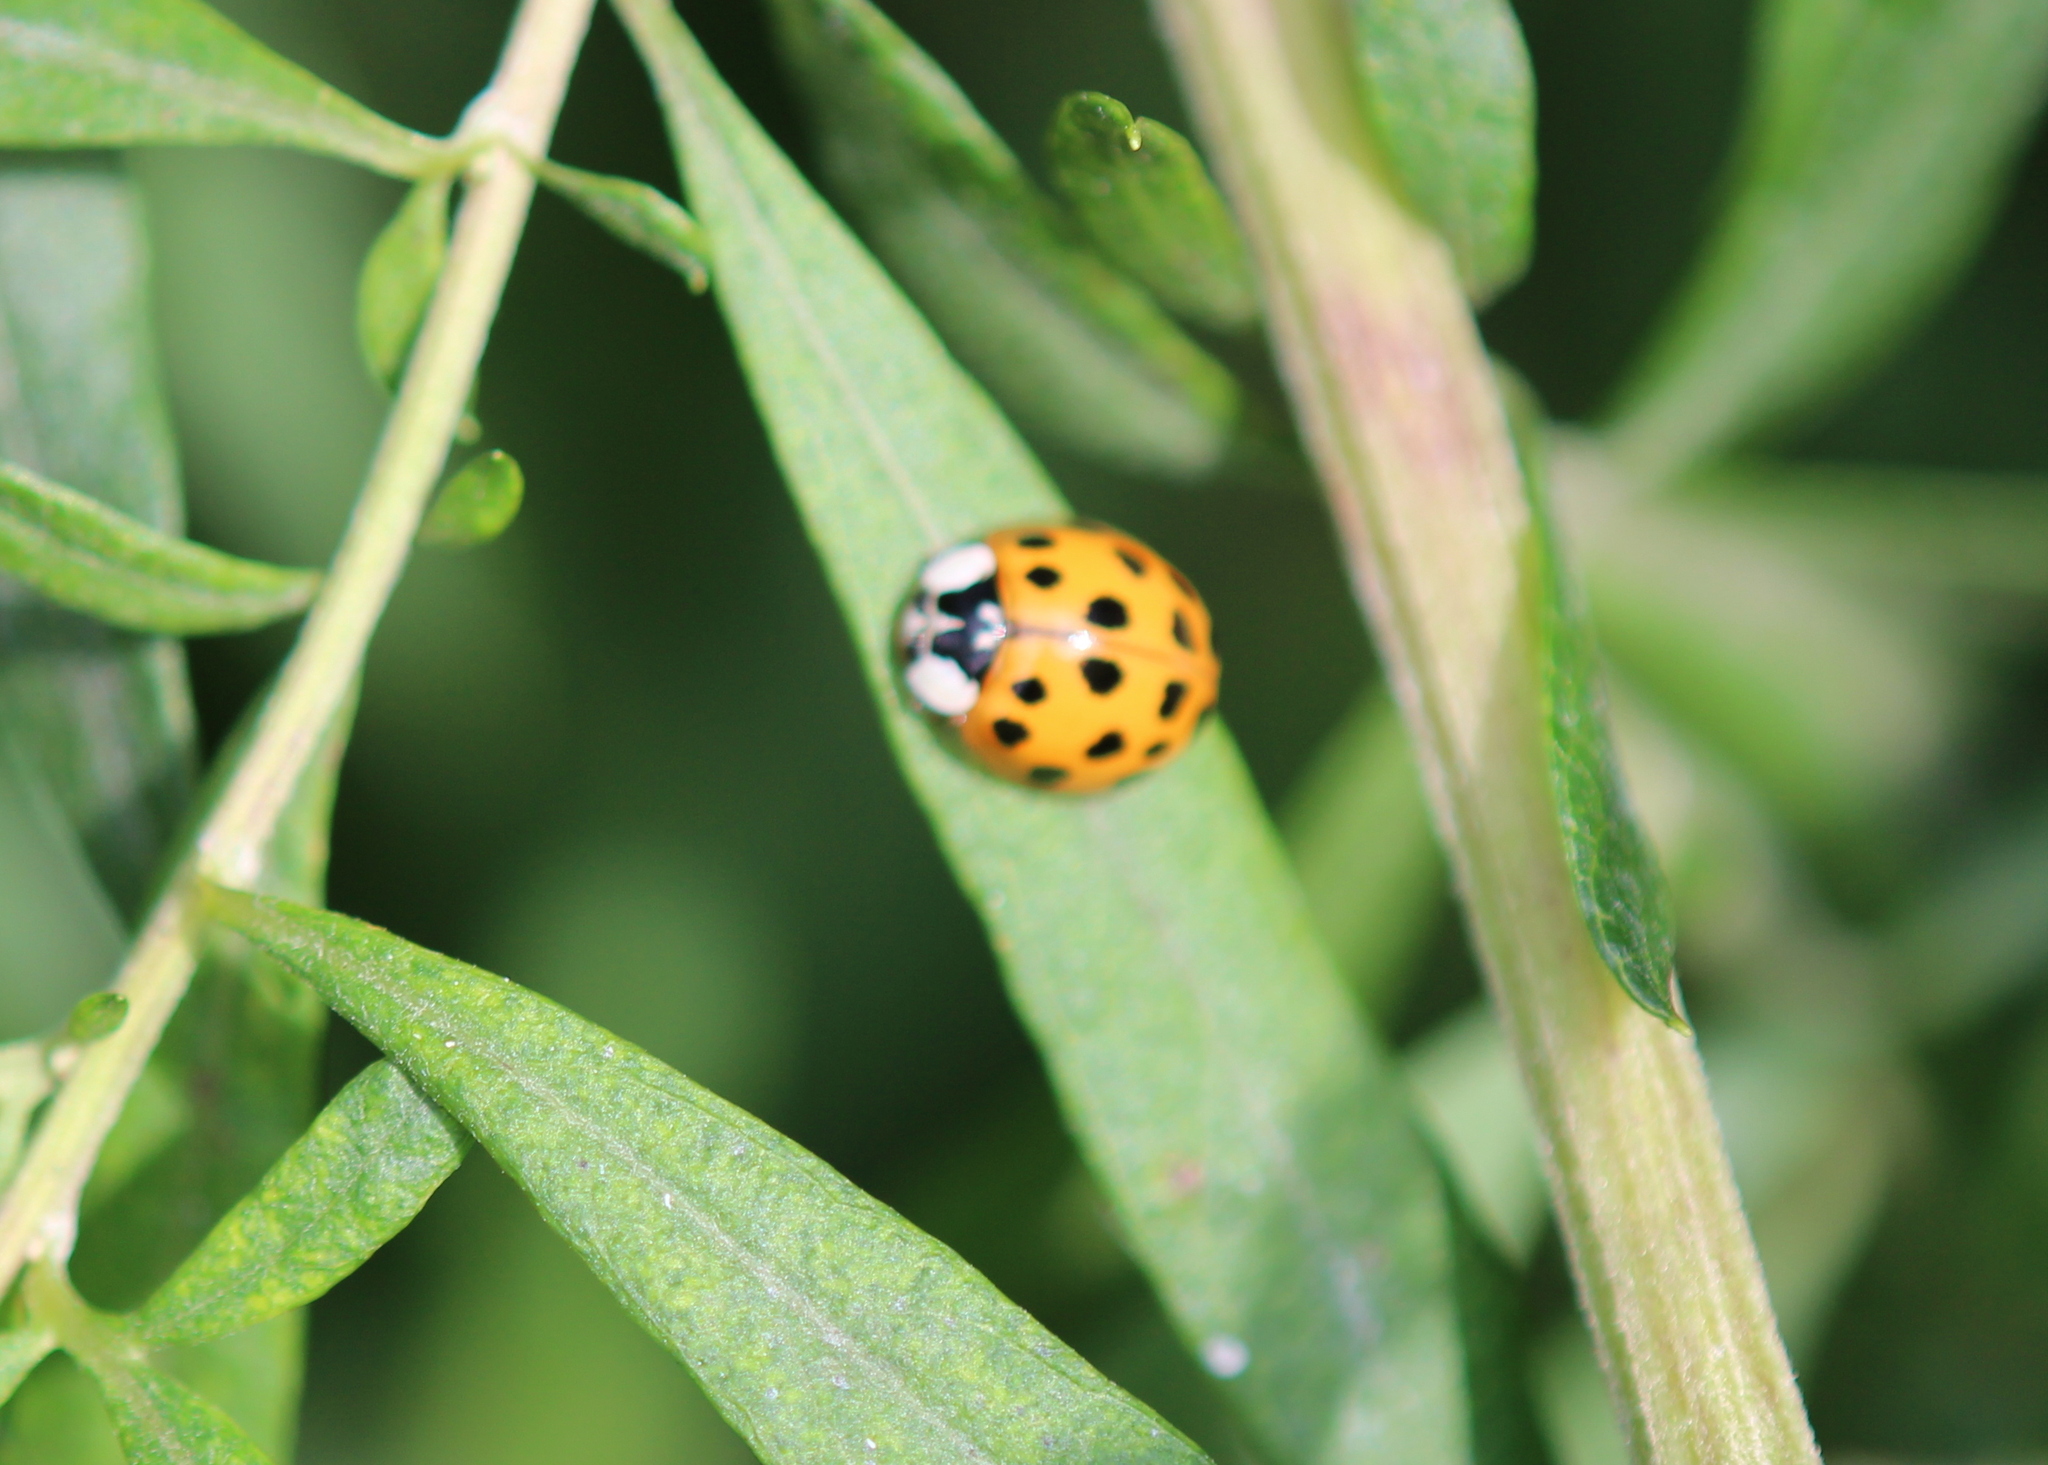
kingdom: Animalia
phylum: Arthropoda
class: Insecta
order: Coleoptera
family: Coccinellidae
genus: Harmonia
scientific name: Harmonia axyridis
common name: Harlequin ladybird
